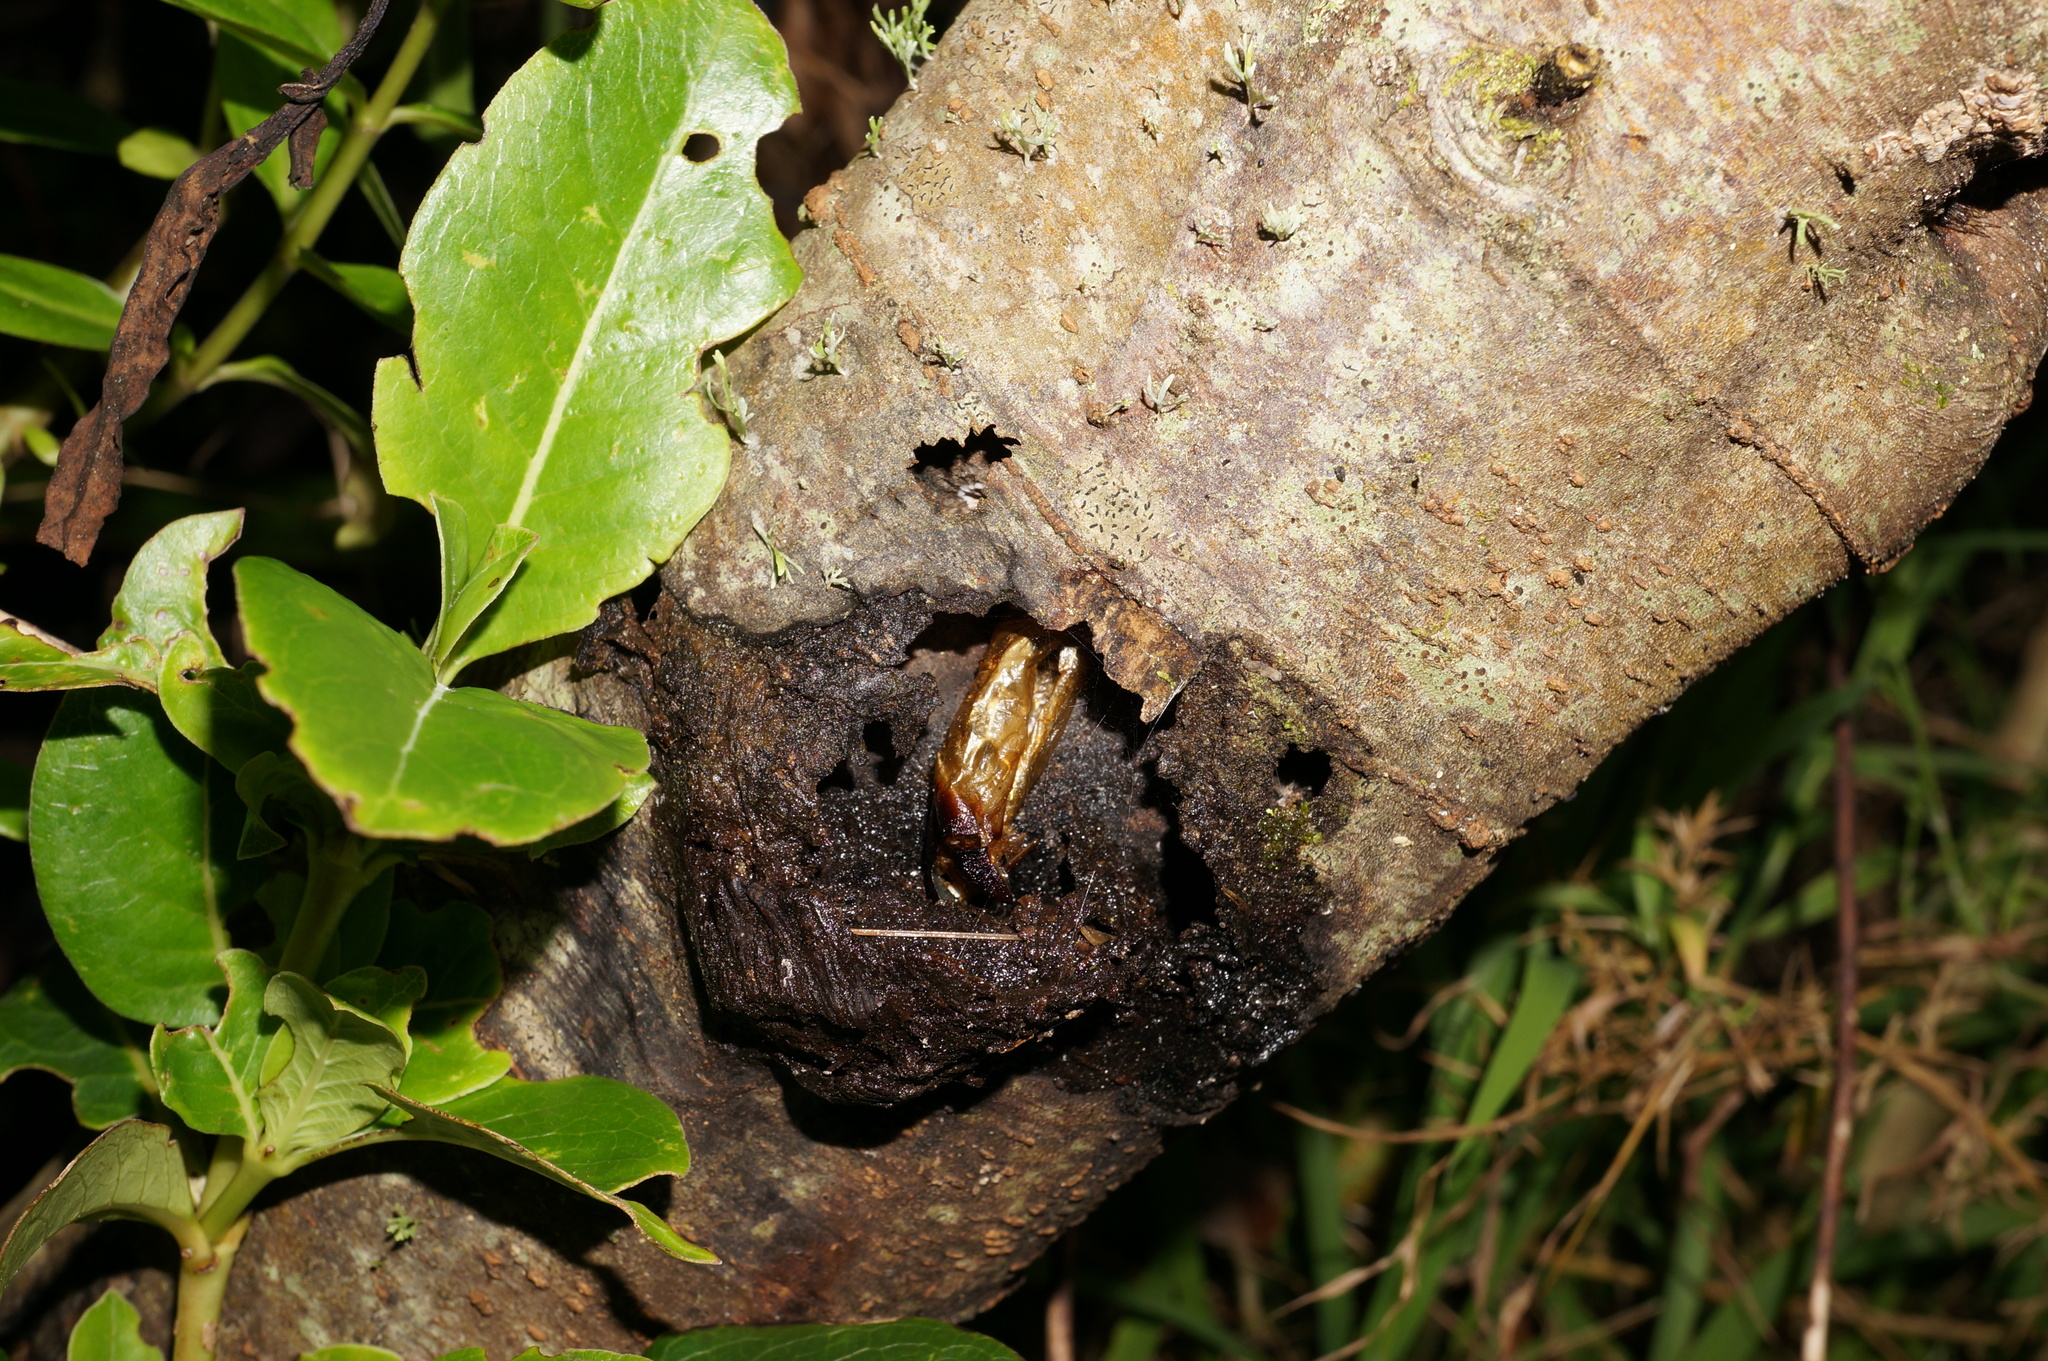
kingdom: Animalia
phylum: Arthropoda
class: Insecta
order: Lepidoptera
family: Hepialidae
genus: Aenetus
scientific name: Aenetus virescens
